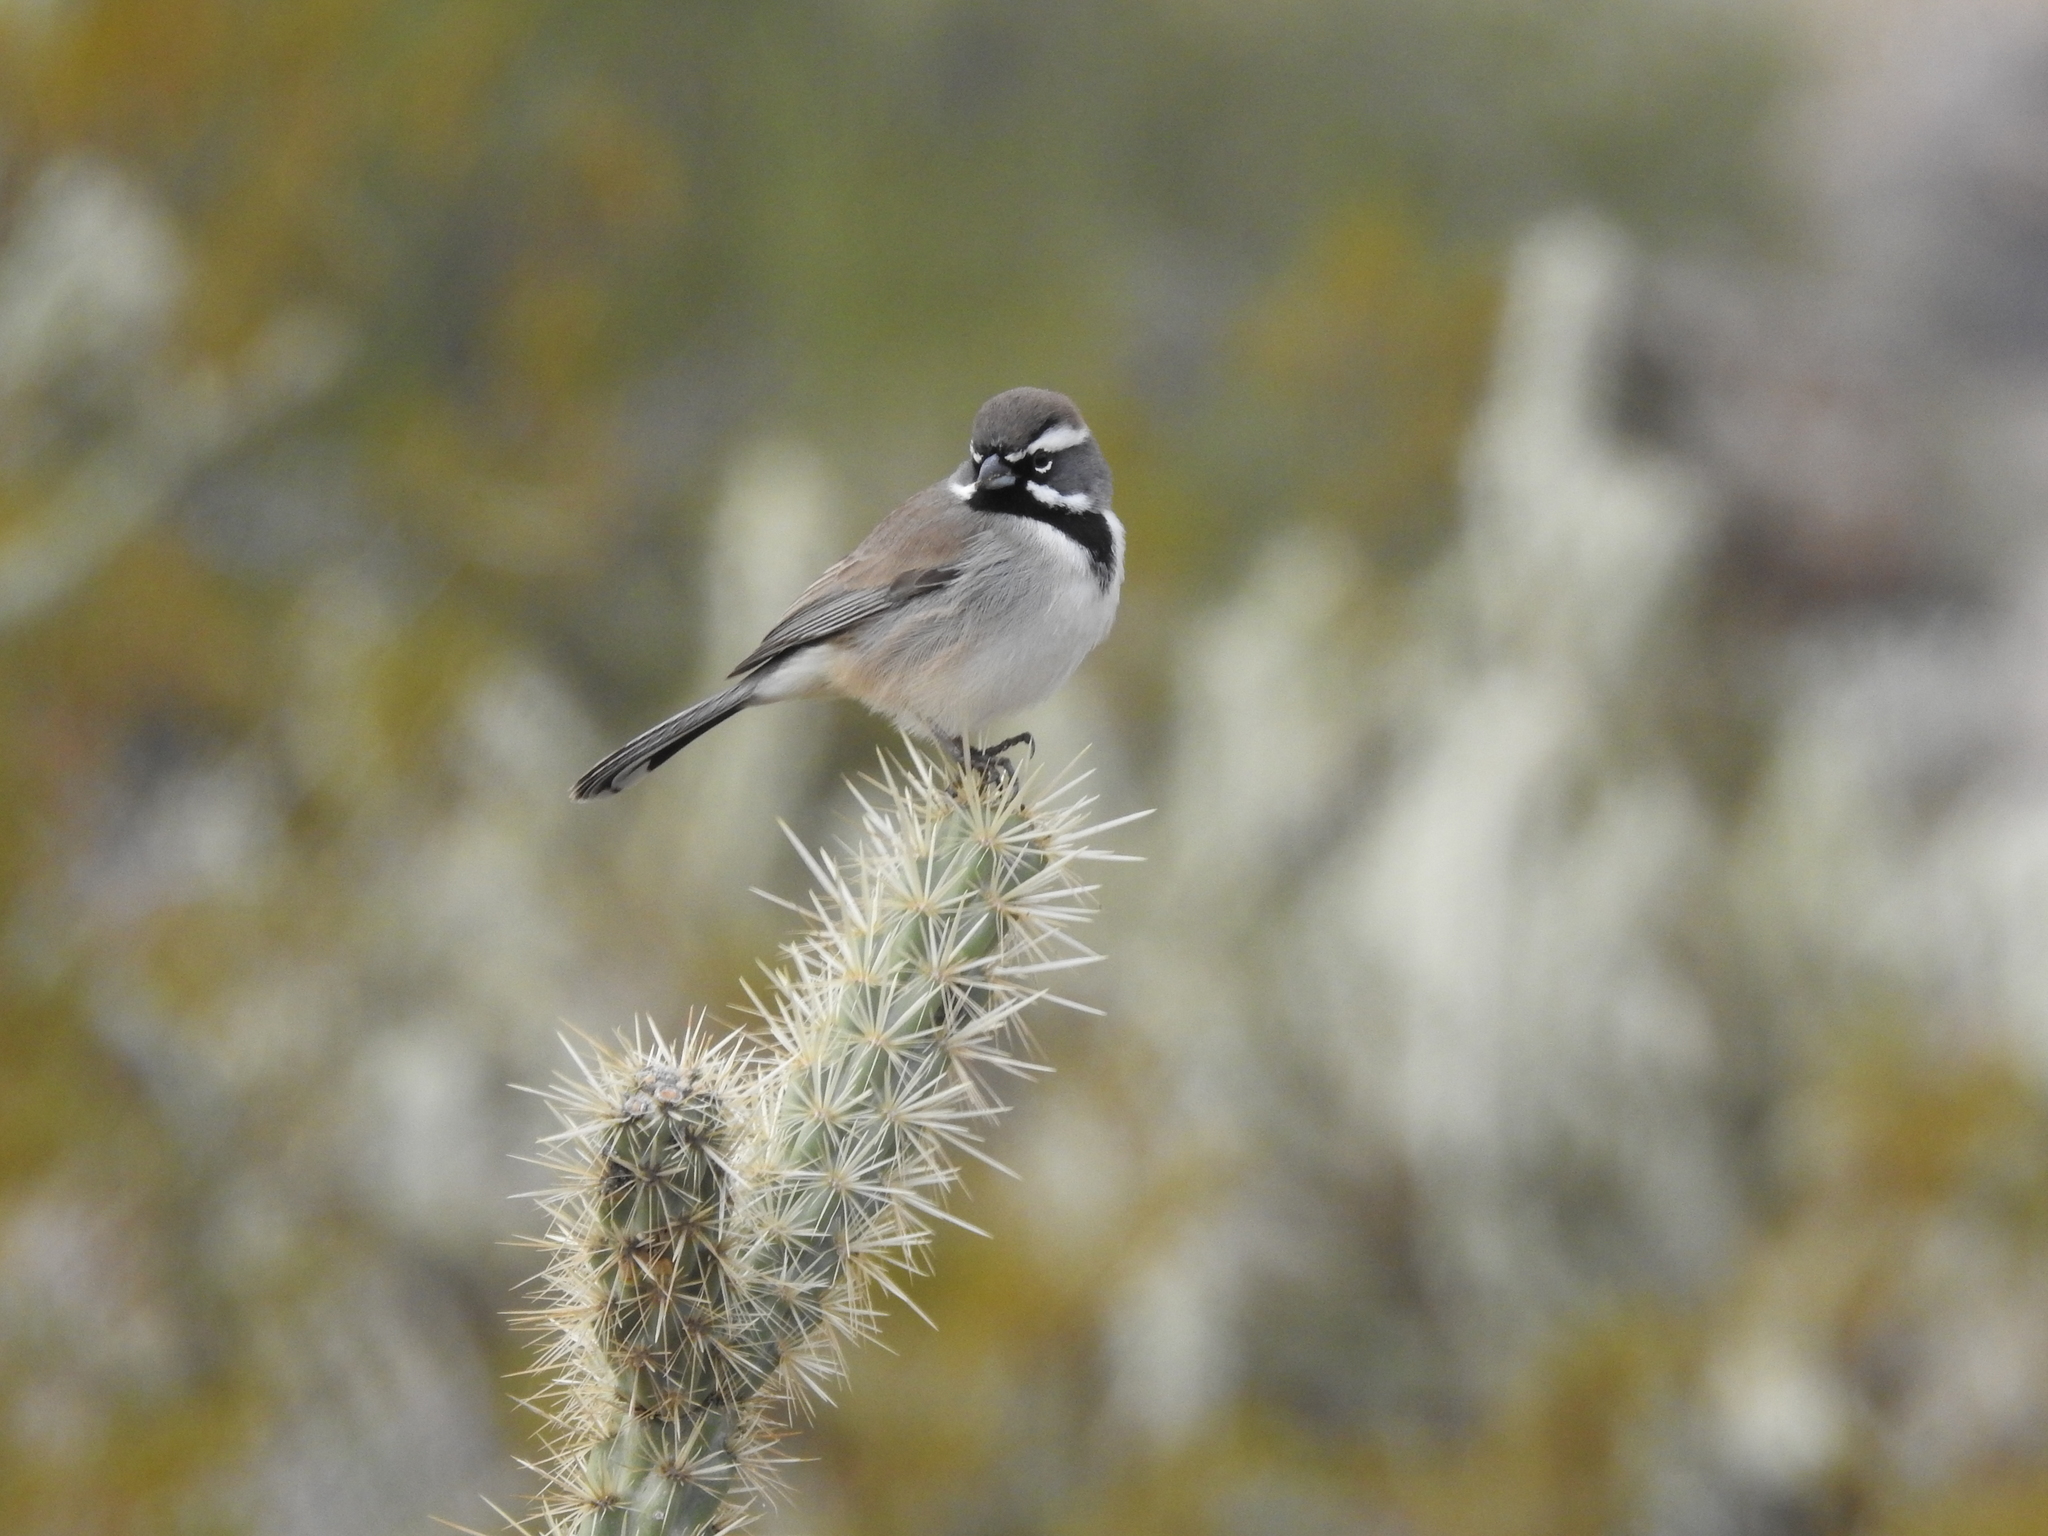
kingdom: Animalia
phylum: Chordata
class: Aves
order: Passeriformes
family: Passerellidae
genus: Amphispiza
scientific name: Amphispiza bilineata
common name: Black-throated sparrow
